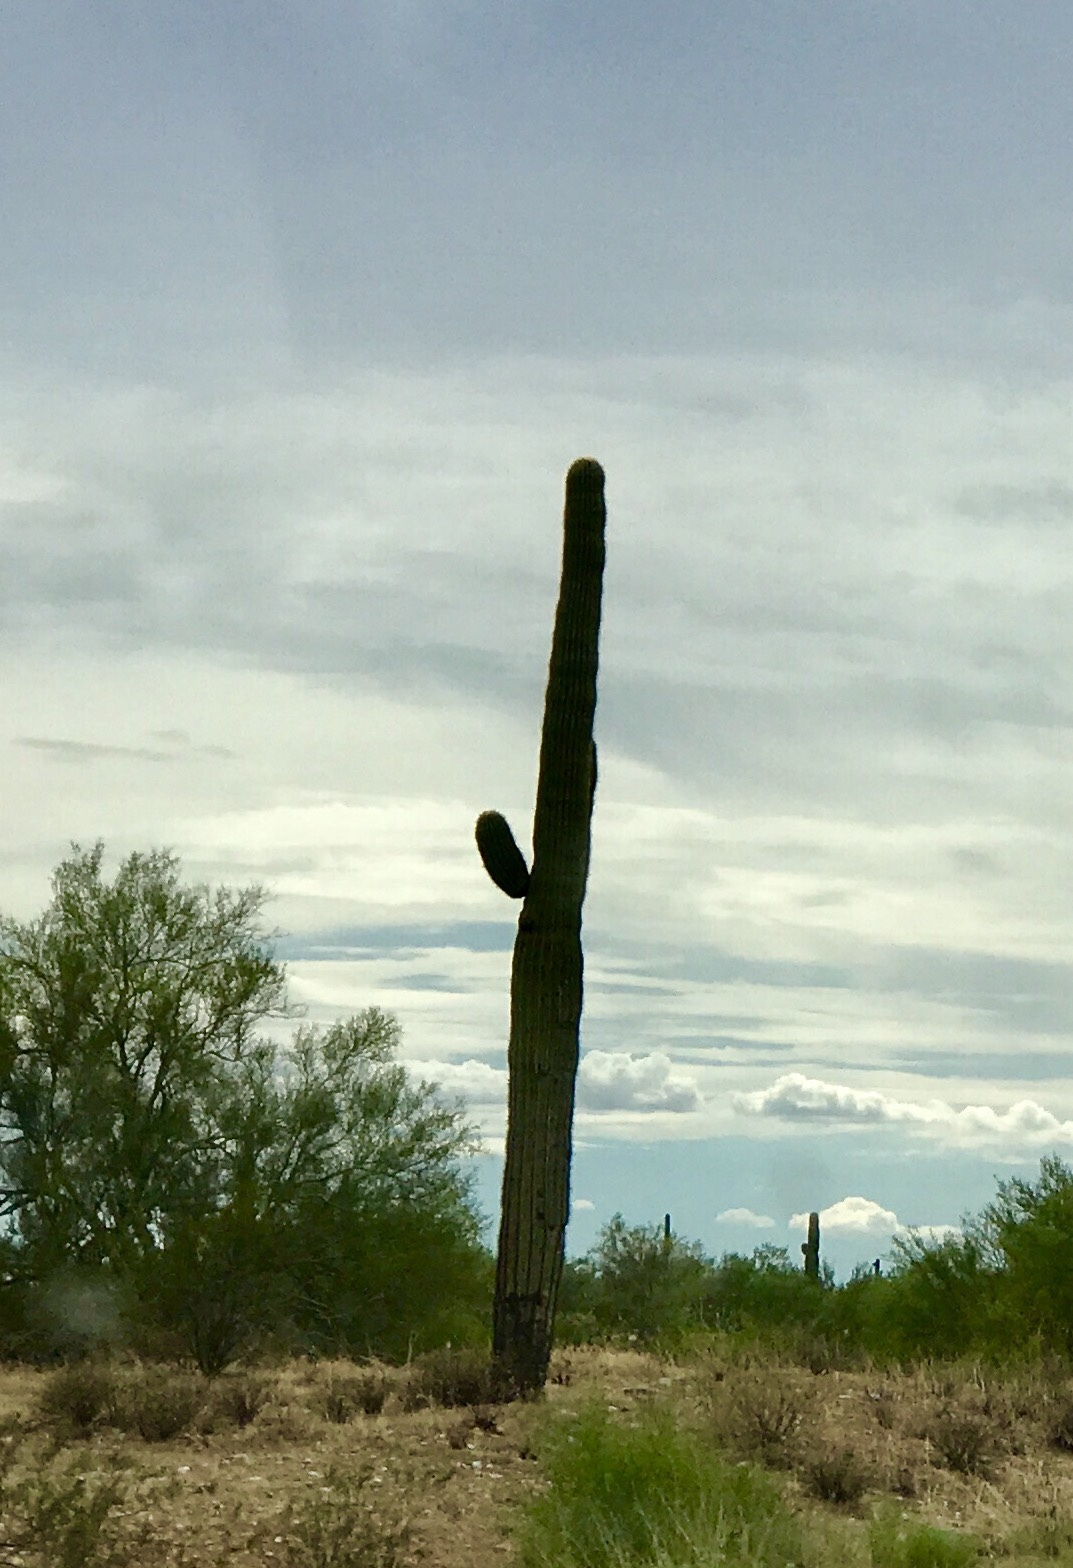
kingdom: Plantae
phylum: Tracheophyta
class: Magnoliopsida
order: Caryophyllales
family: Cactaceae
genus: Carnegiea
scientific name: Carnegiea gigantea
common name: Saguaro
